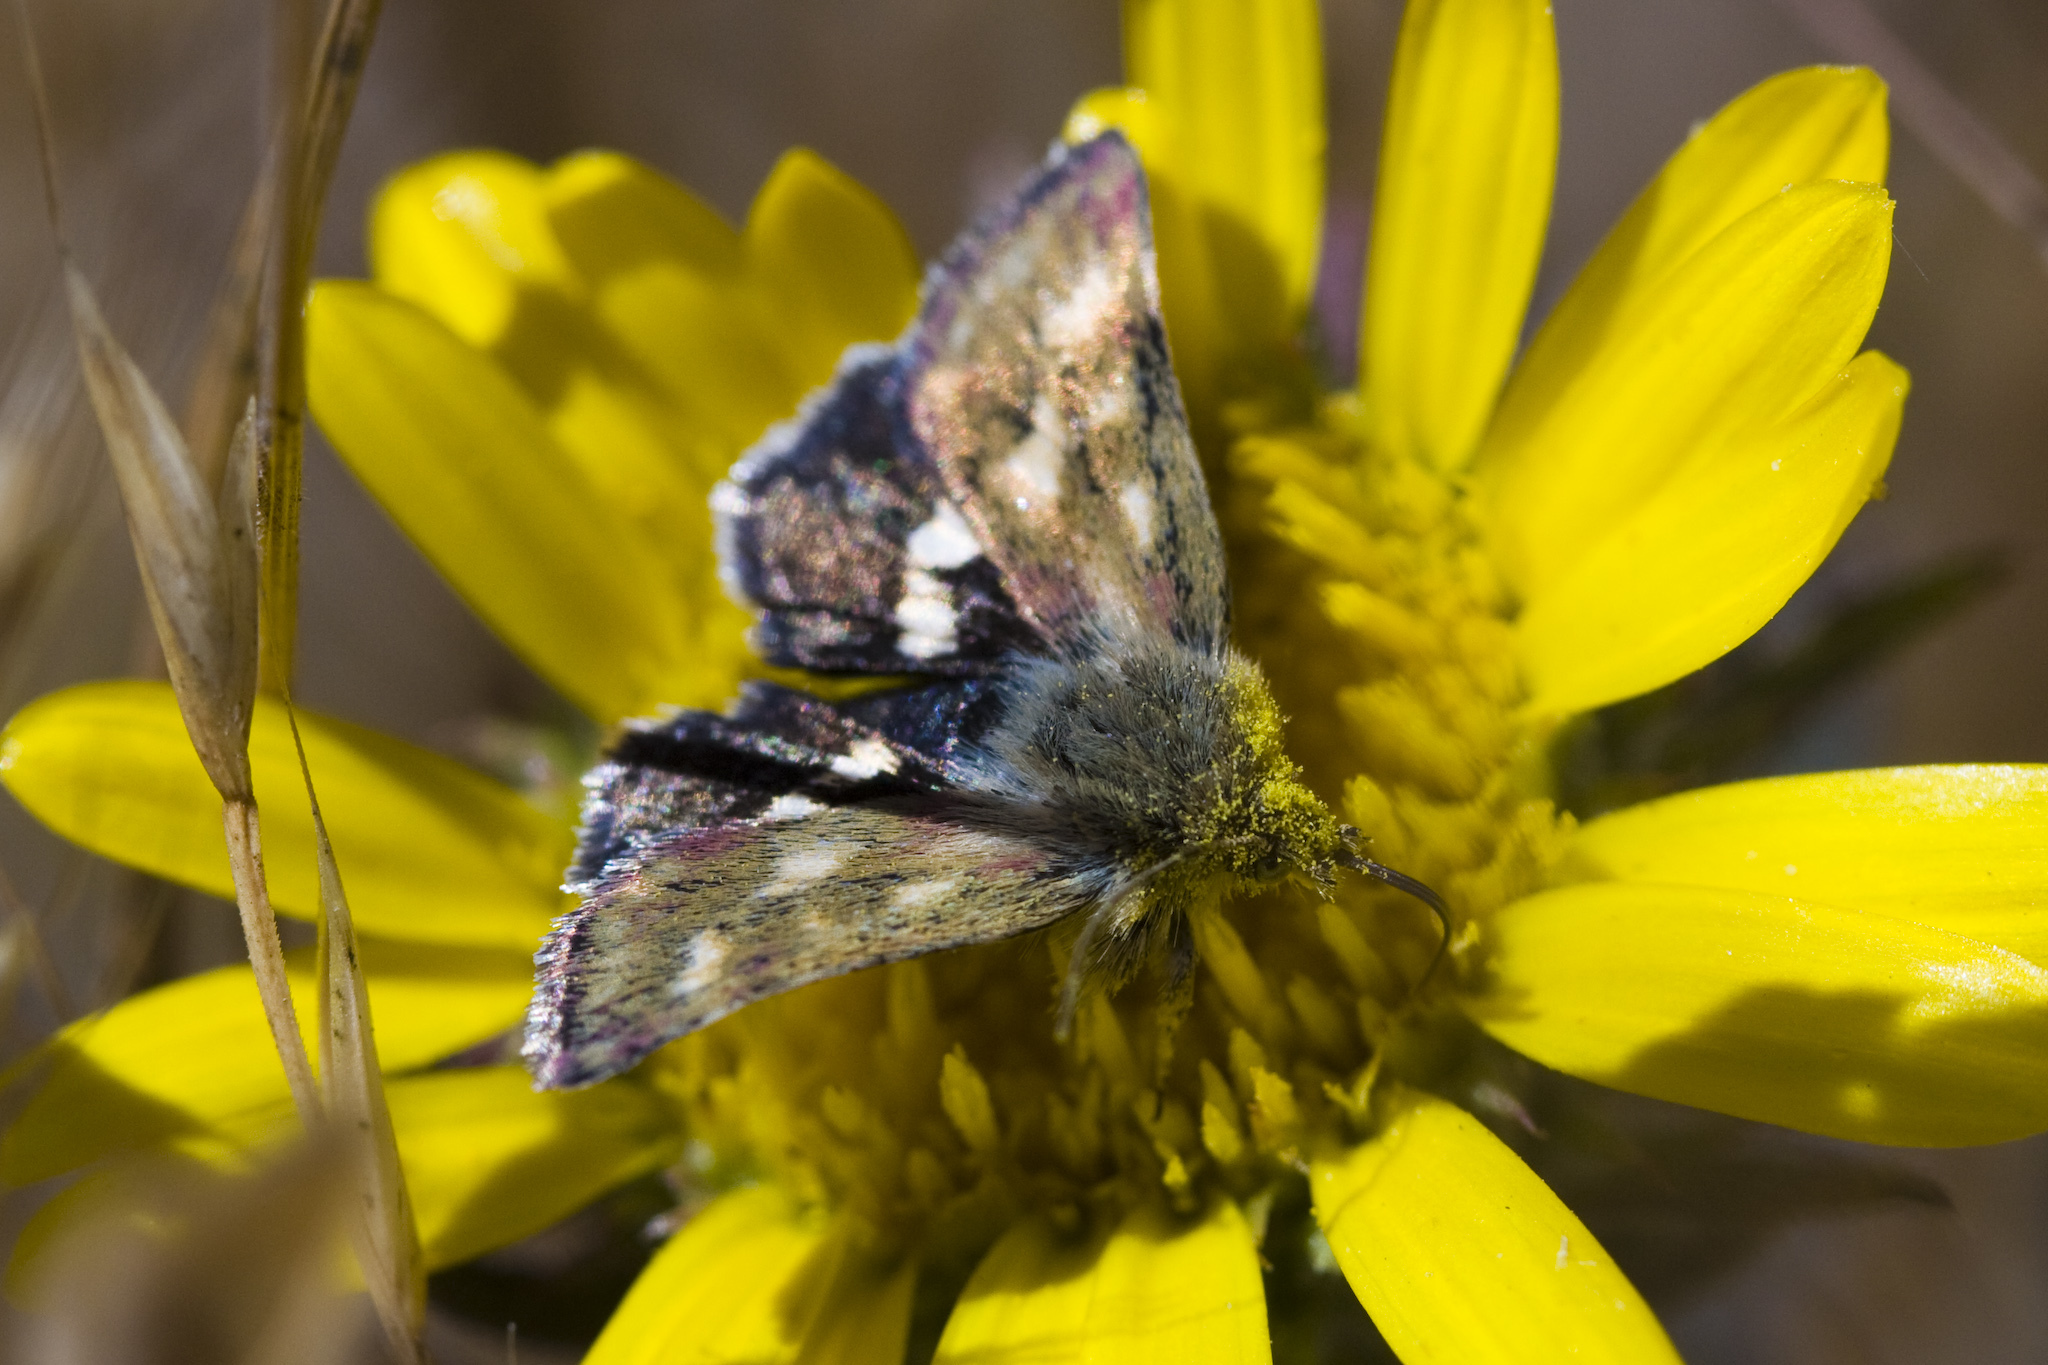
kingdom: Animalia
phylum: Arthropoda
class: Insecta
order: Lepidoptera
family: Noctuidae
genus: Heliothodes
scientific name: Heliothodes diminutiva
